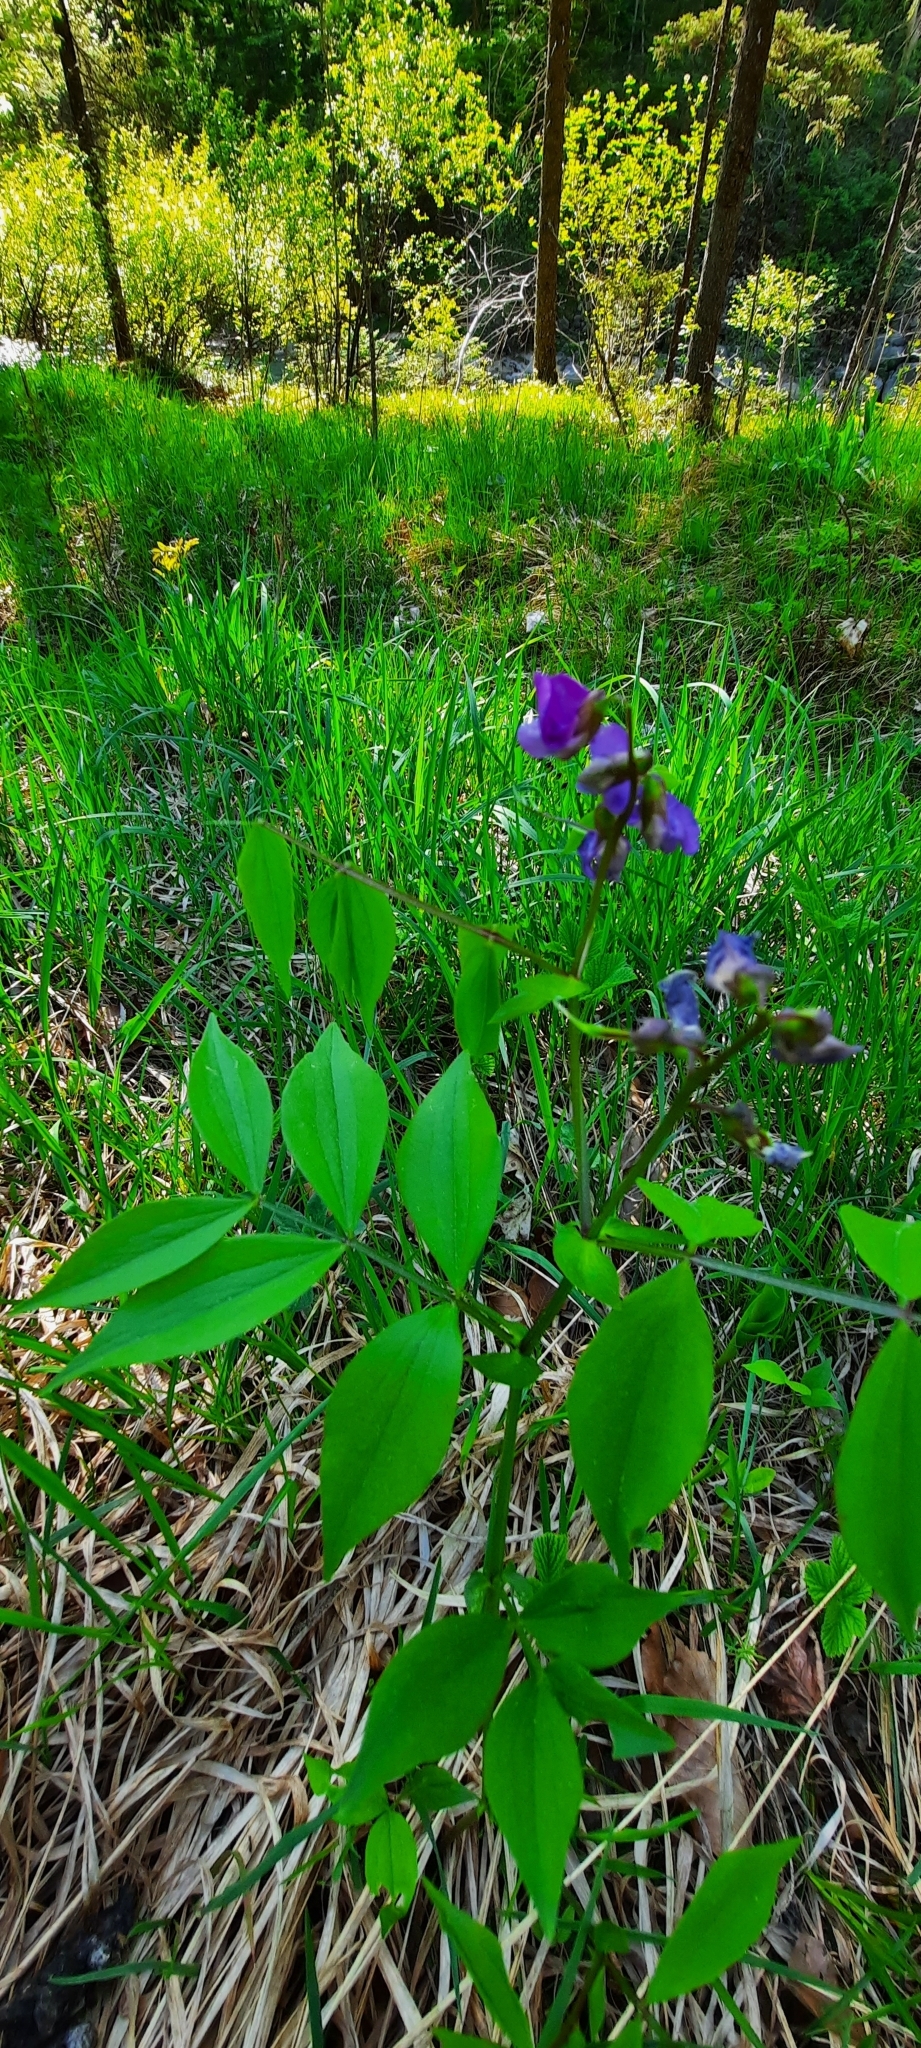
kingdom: Plantae
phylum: Tracheophyta
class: Magnoliopsida
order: Fabales
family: Fabaceae
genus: Lathyrus
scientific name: Lathyrus vernus
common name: Spring pea
